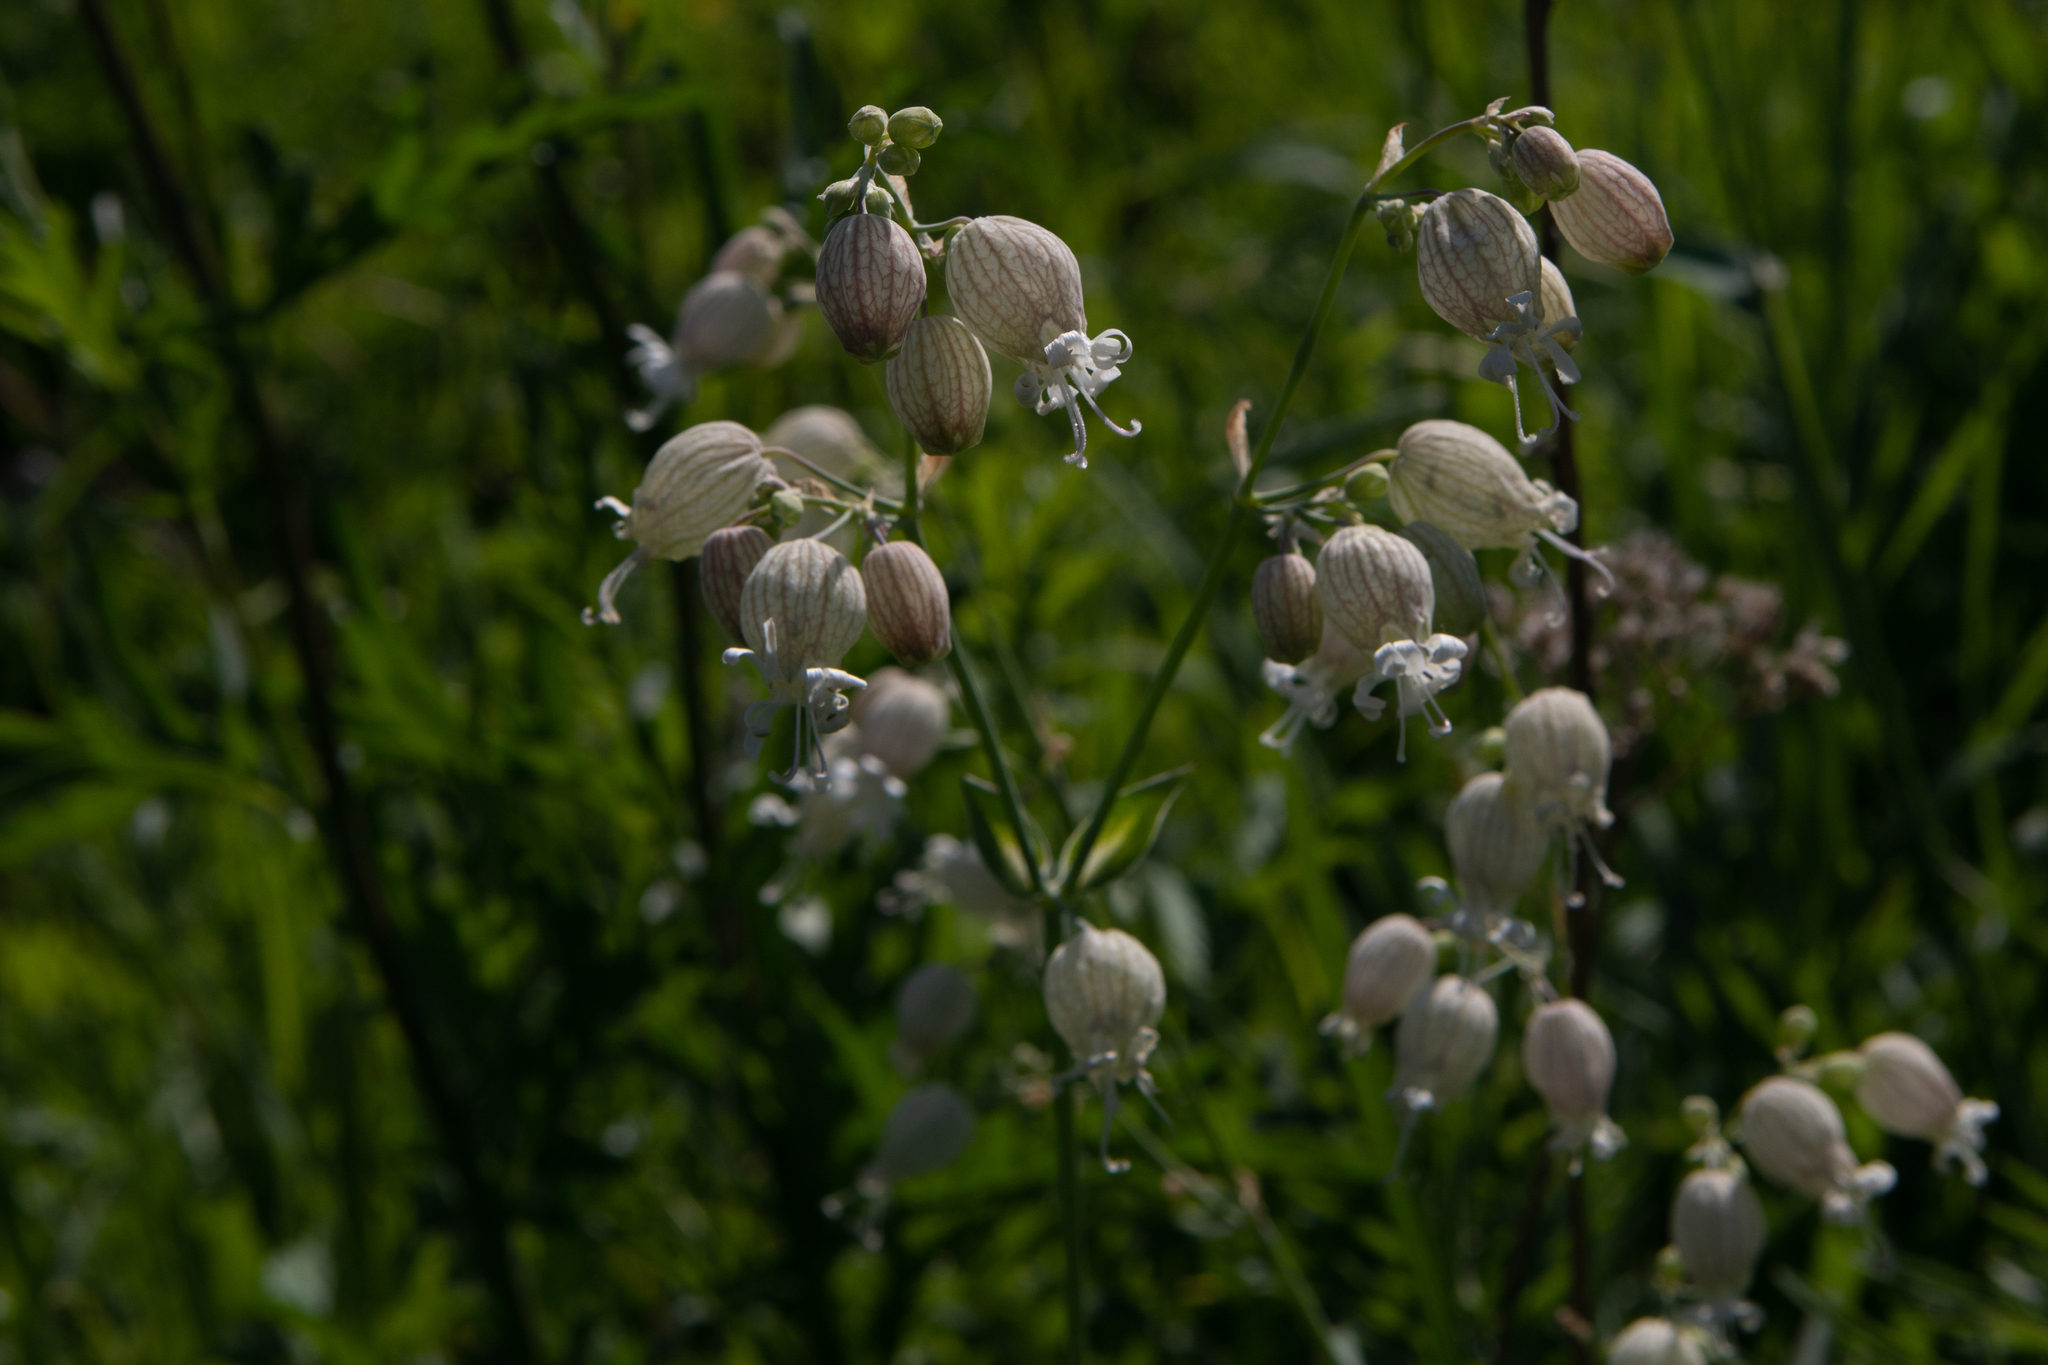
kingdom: Plantae
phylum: Tracheophyta
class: Magnoliopsida
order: Caryophyllales
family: Caryophyllaceae
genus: Silene
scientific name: Silene vulgaris
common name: Bladder campion
